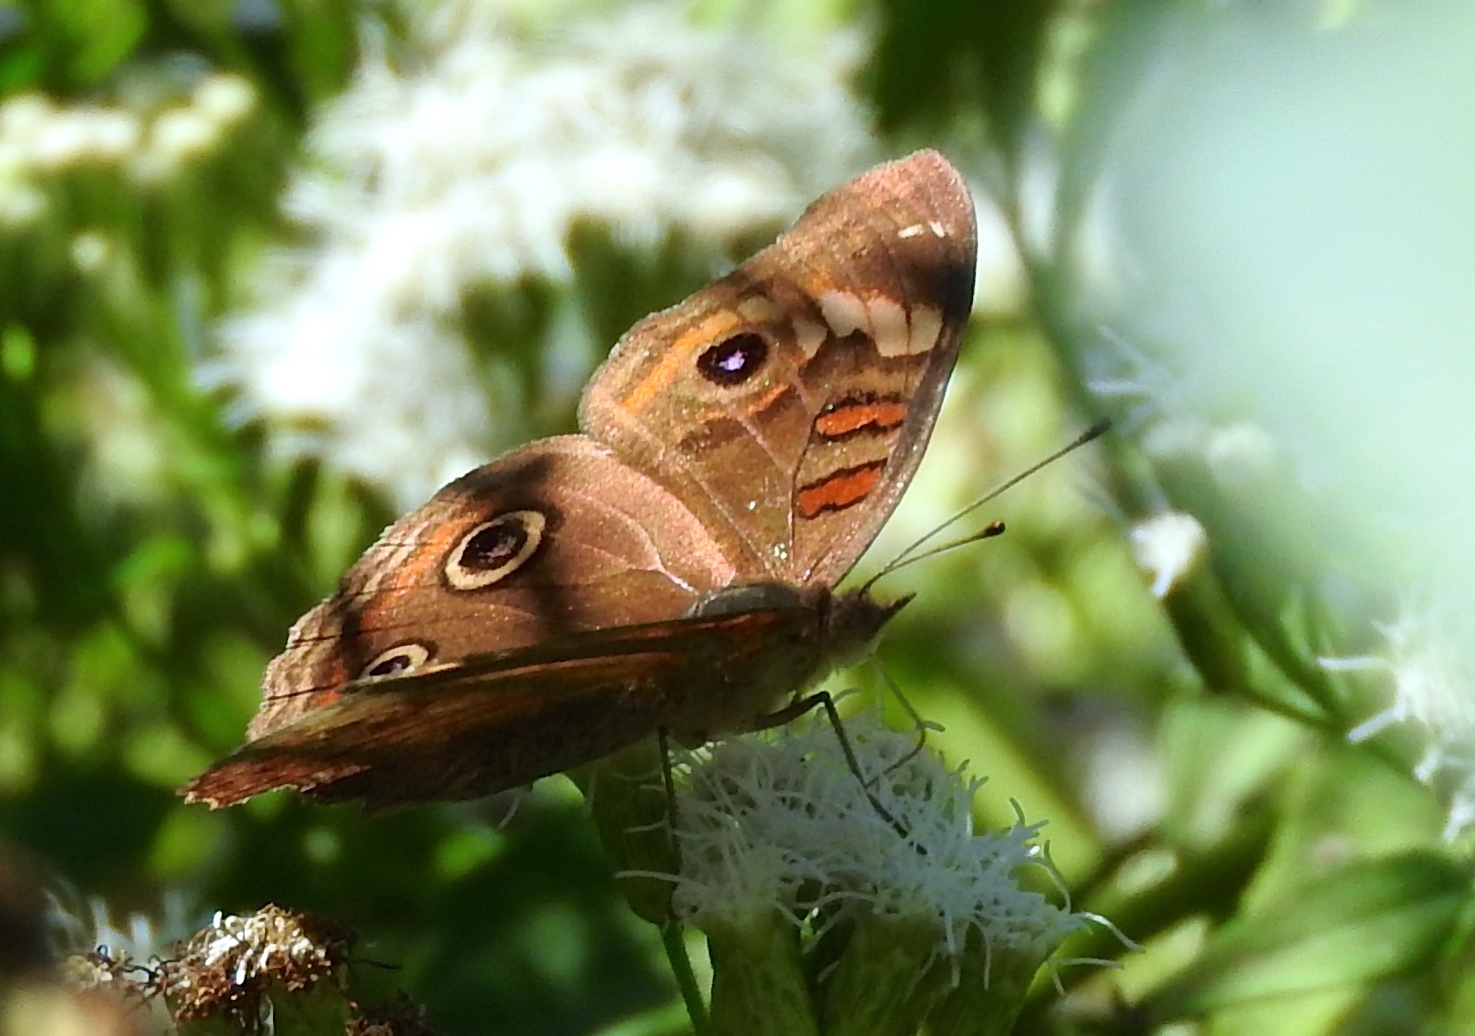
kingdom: Animalia
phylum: Arthropoda
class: Insecta
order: Lepidoptera
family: Nymphalidae
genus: Junonia
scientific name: Junonia nigrosuffusa
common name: Dark buckeye
